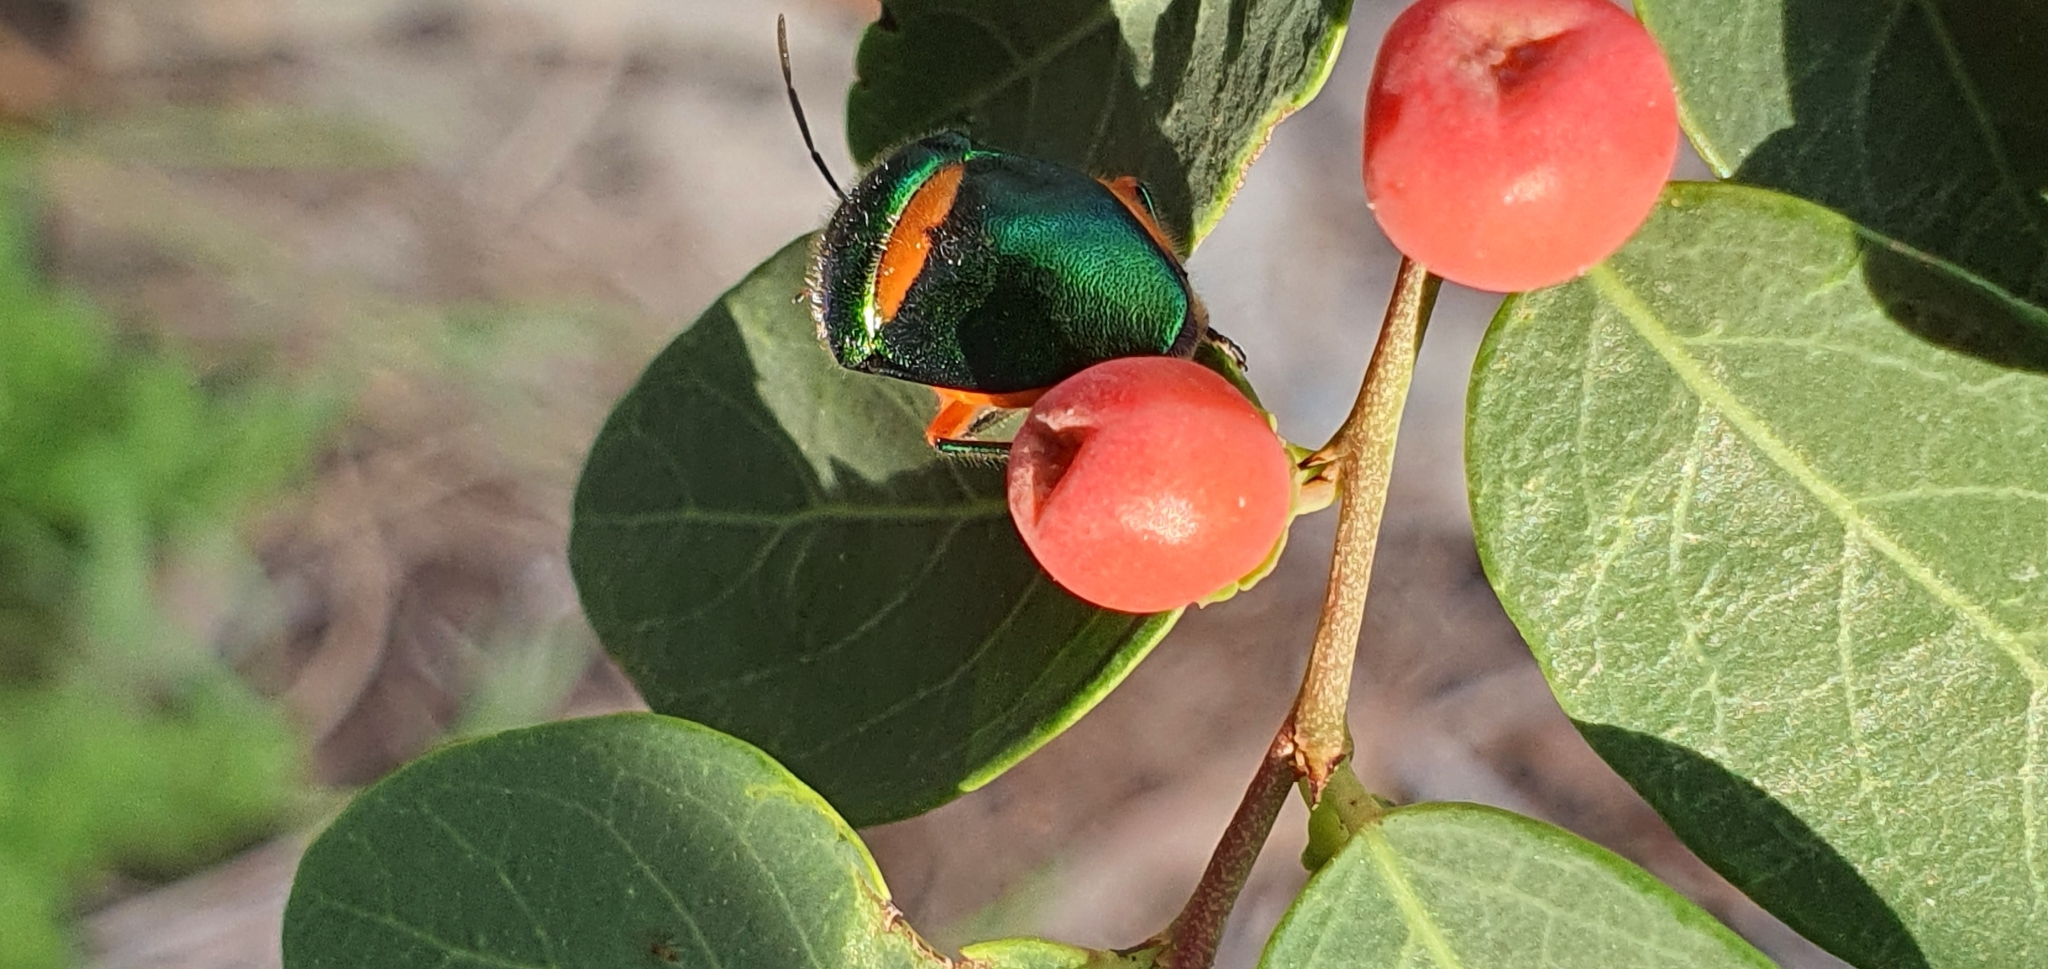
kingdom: Animalia
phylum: Arthropoda
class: Insecta
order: Hemiptera
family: Scutelleridae
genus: Lampromicra
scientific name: Lampromicra senator
